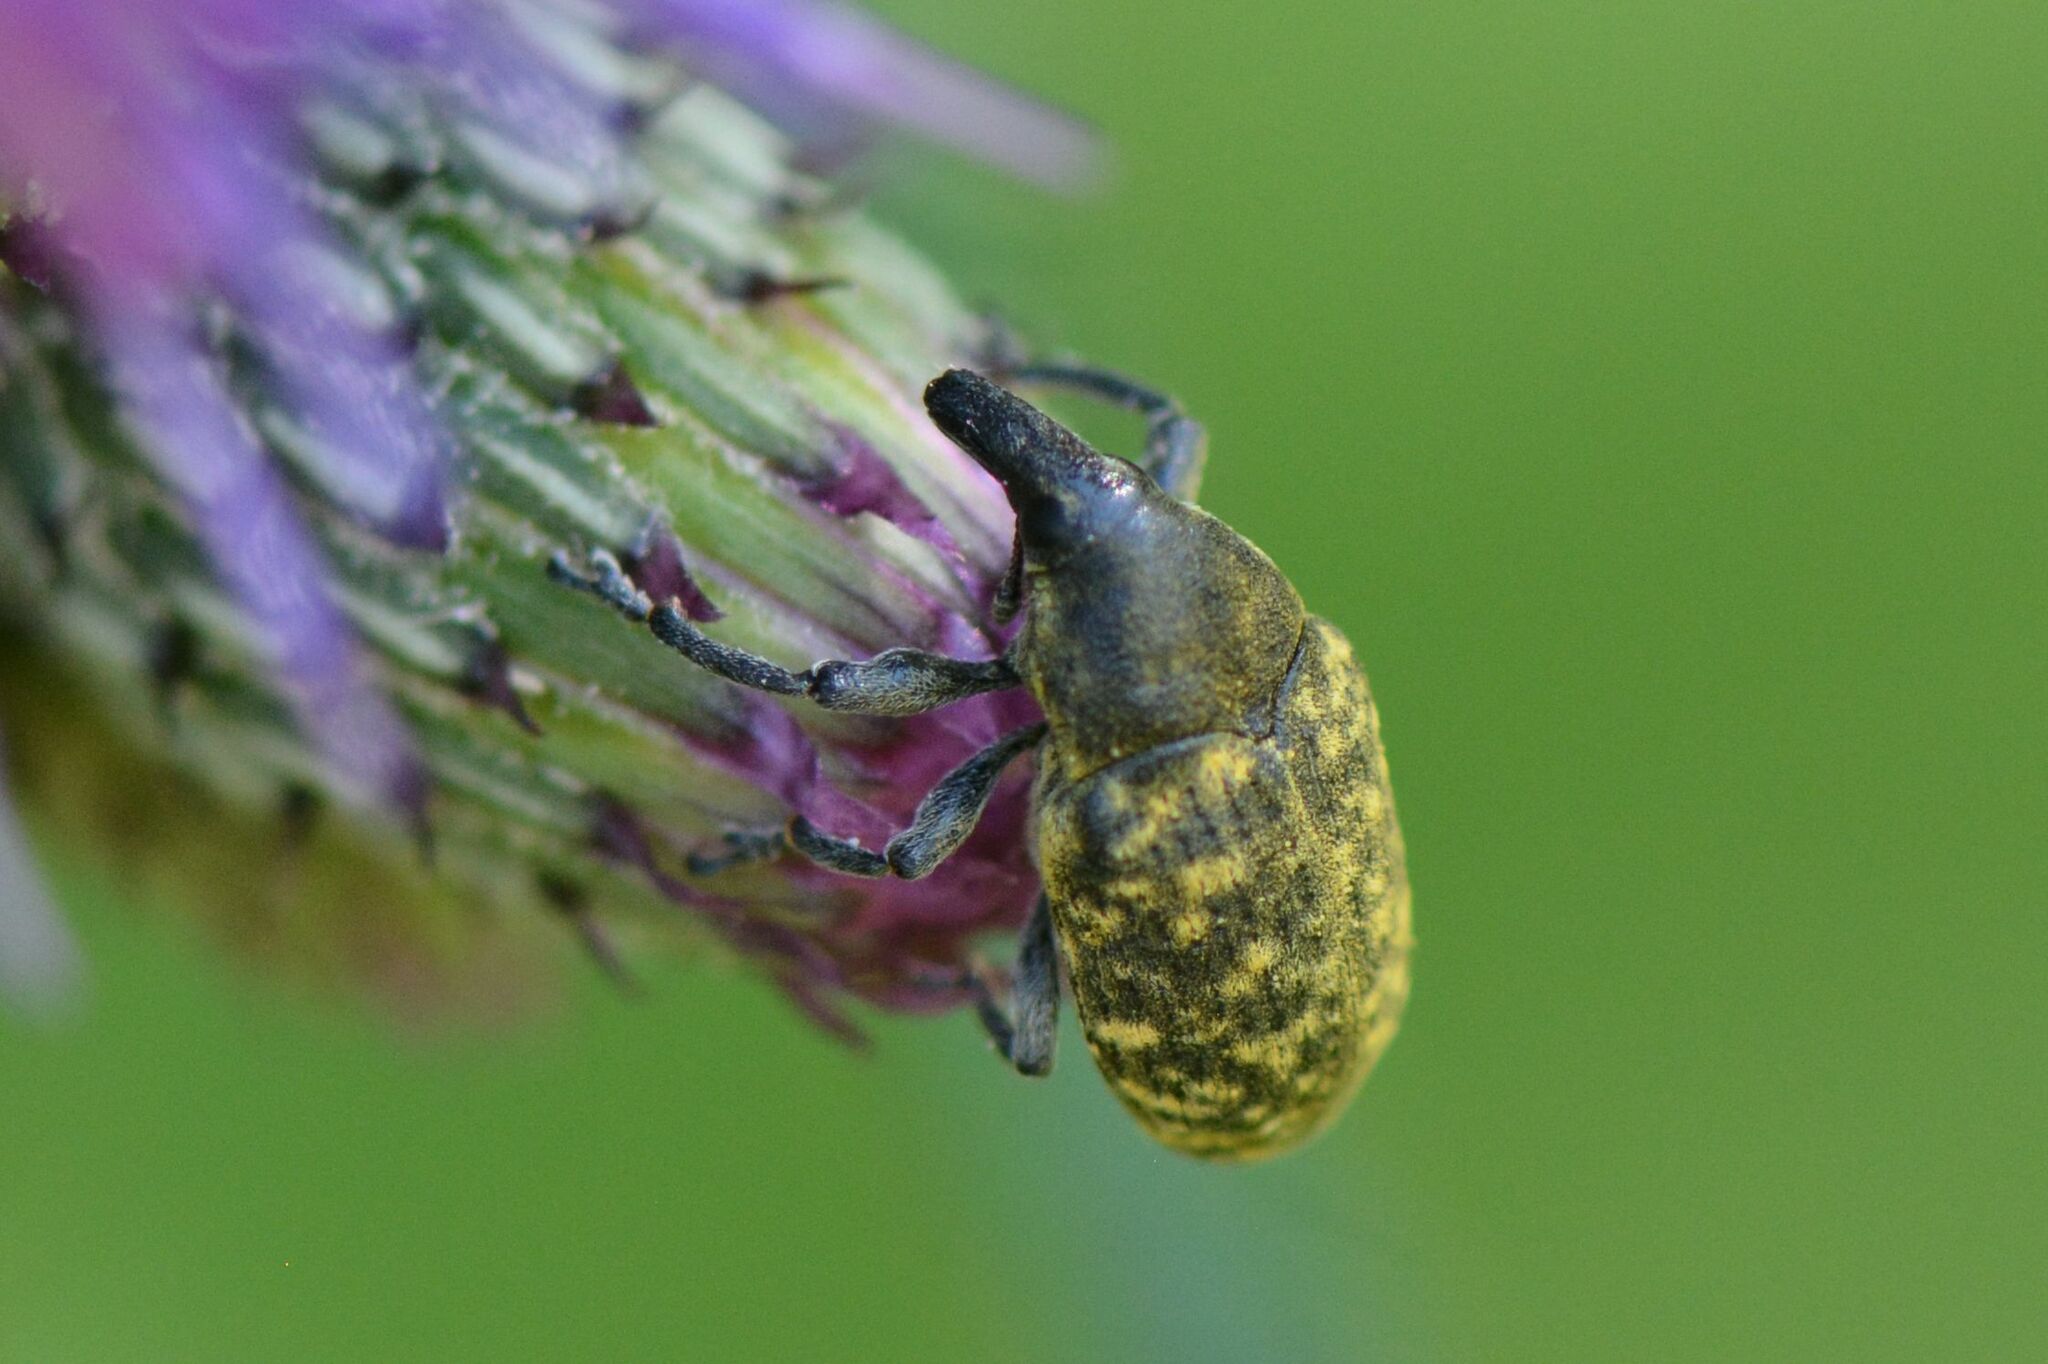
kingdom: Animalia
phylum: Arthropoda
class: Insecta
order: Coleoptera
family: Curculionidae
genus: Larinus
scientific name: Larinus turbinatus
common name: Weevil
